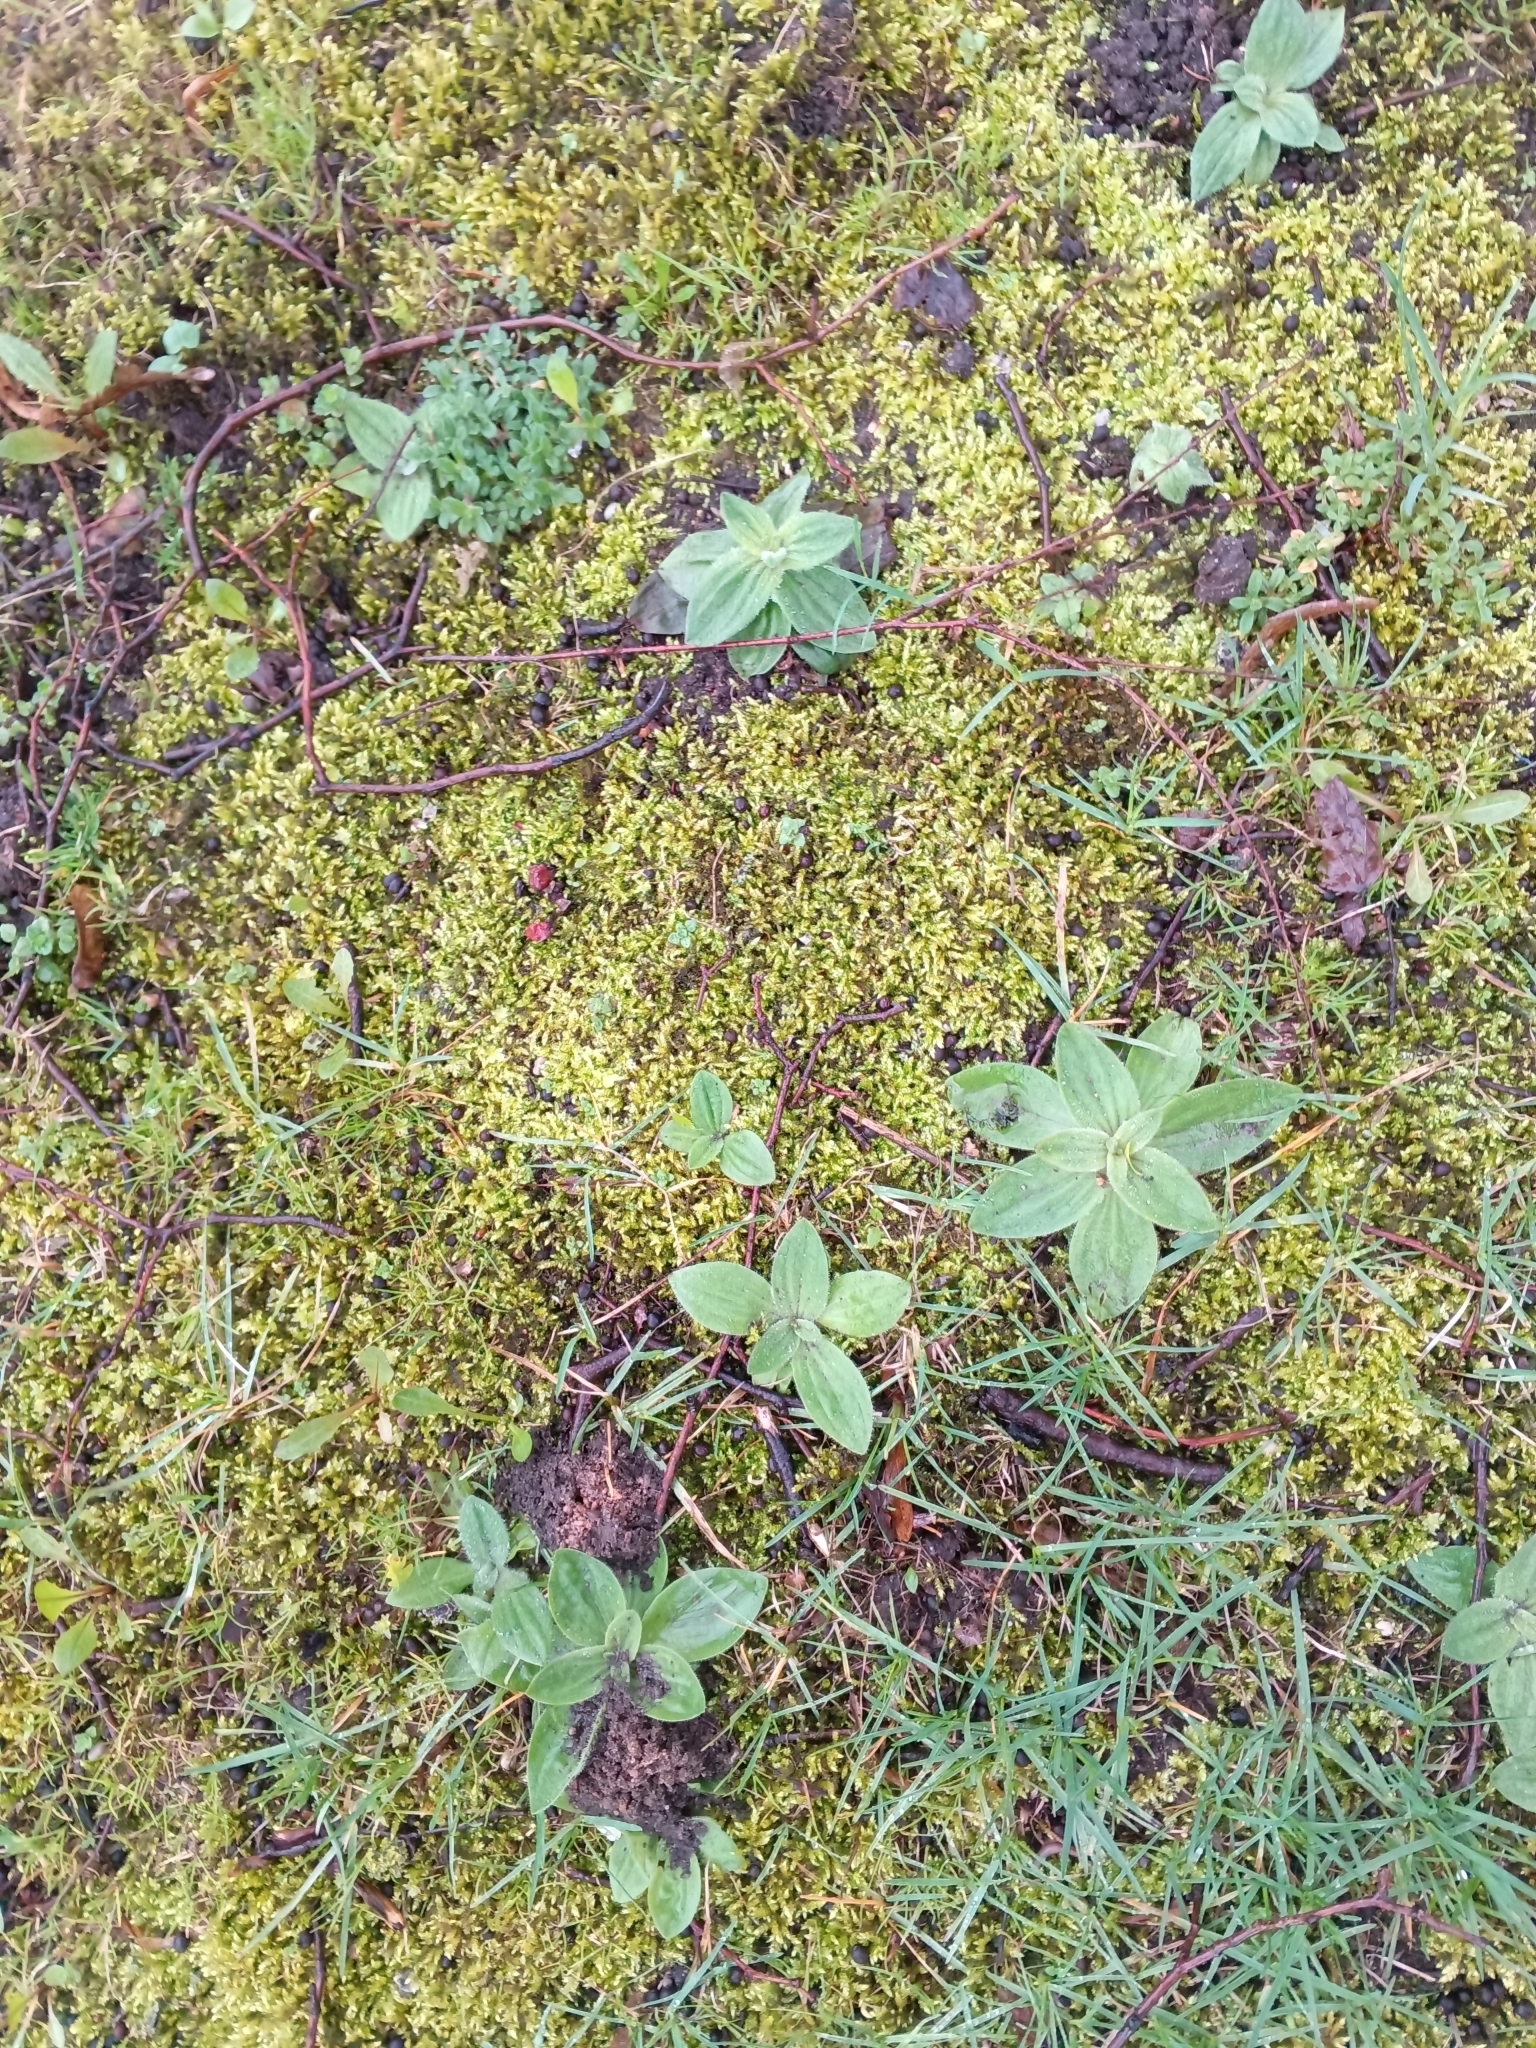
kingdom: Plantae
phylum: Tracheophyta
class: Magnoliopsida
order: Lamiales
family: Plantaginaceae
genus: Plantago
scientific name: Plantago media
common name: Hoary plantain
